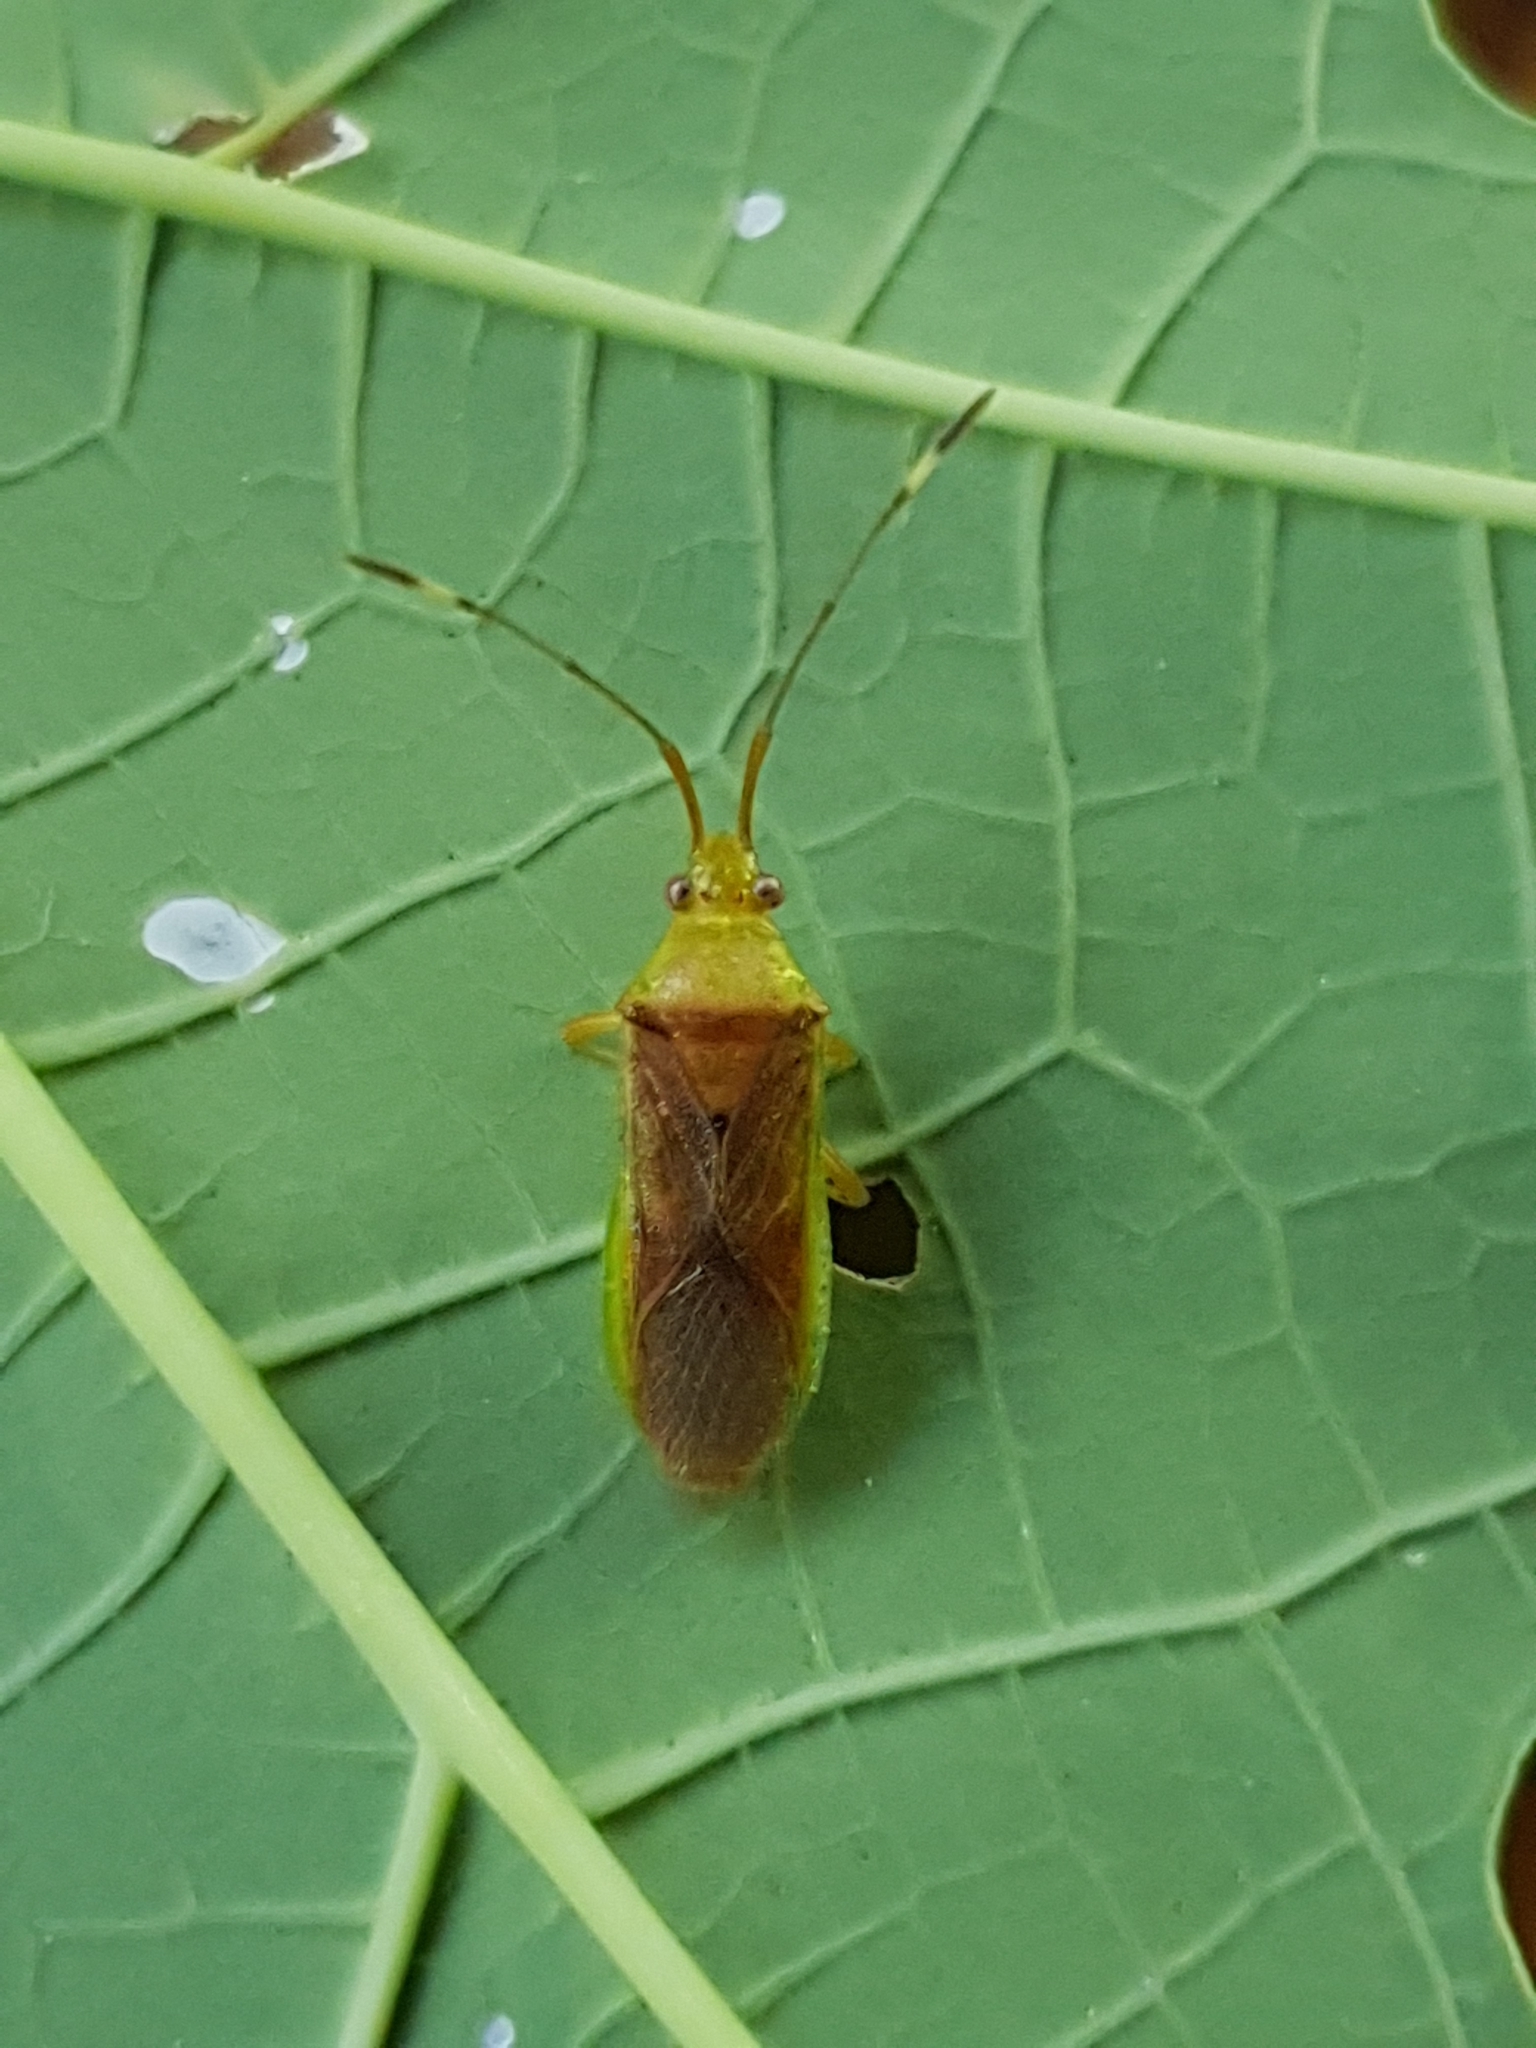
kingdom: Animalia
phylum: Arthropoda
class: Insecta
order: Hemiptera
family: Coreidae
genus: Amblypelta
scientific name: Amblypelta lutescens
